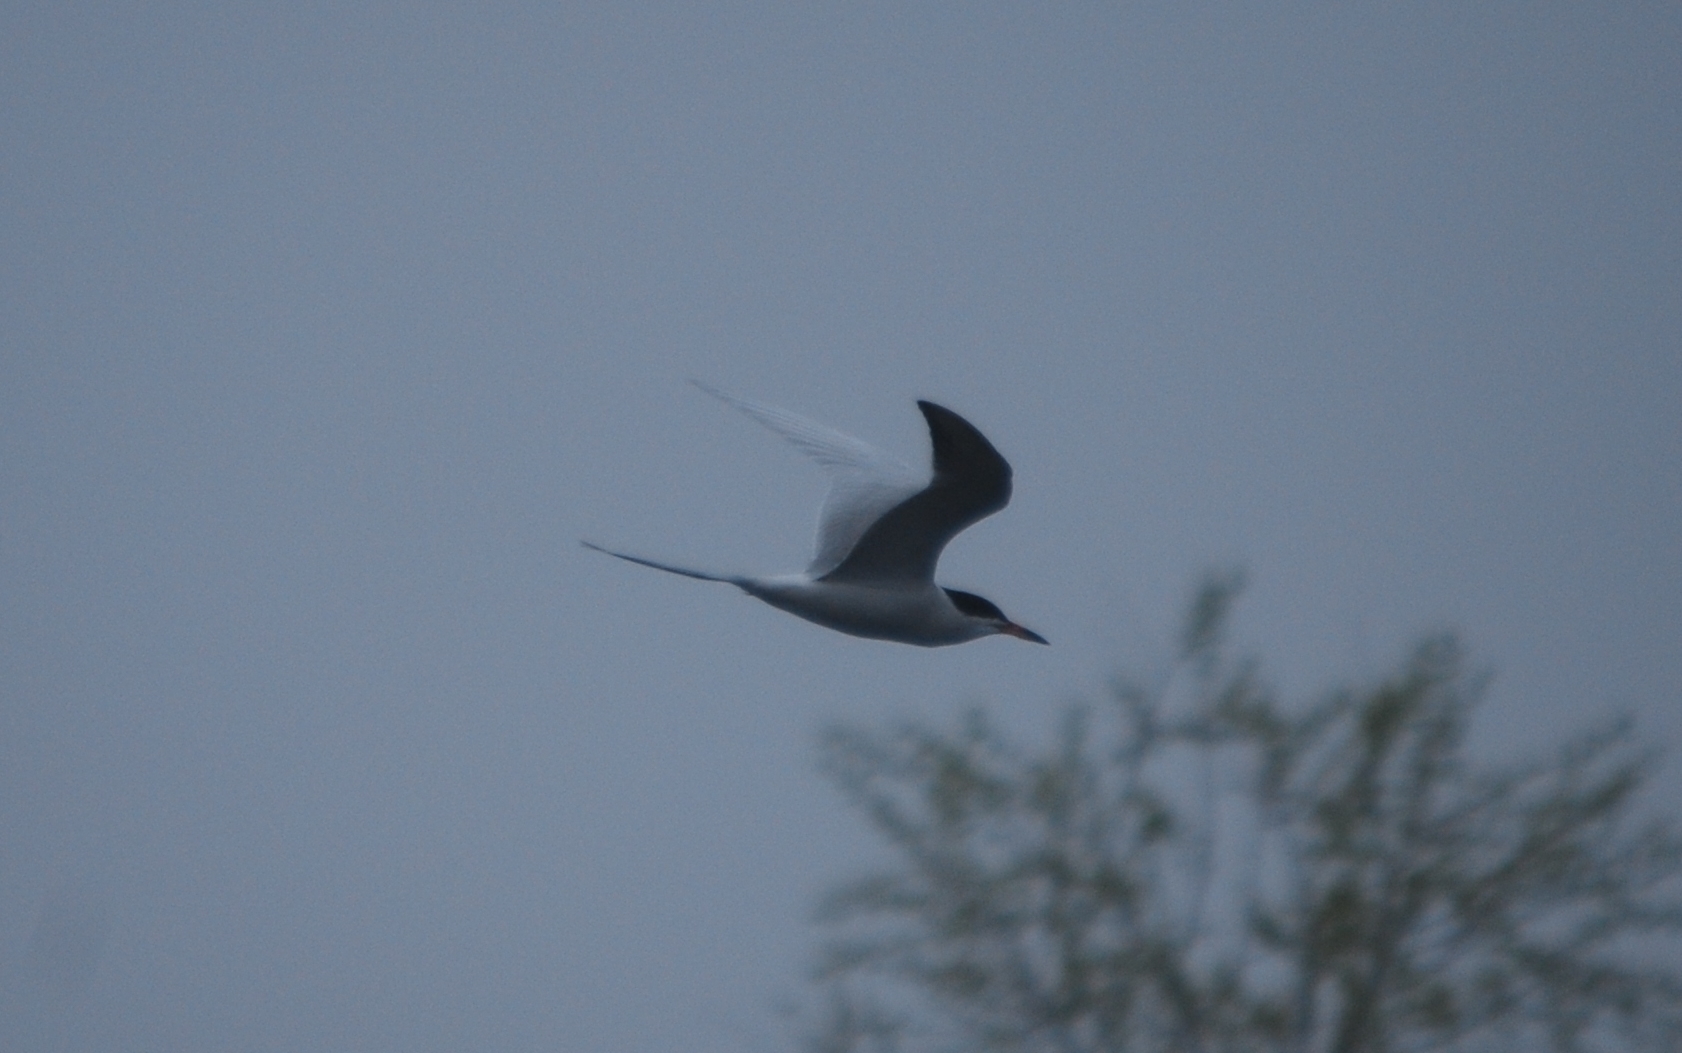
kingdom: Animalia
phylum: Chordata
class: Aves
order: Charadriiformes
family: Laridae
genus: Sterna
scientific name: Sterna forsteri
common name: Forster's tern
